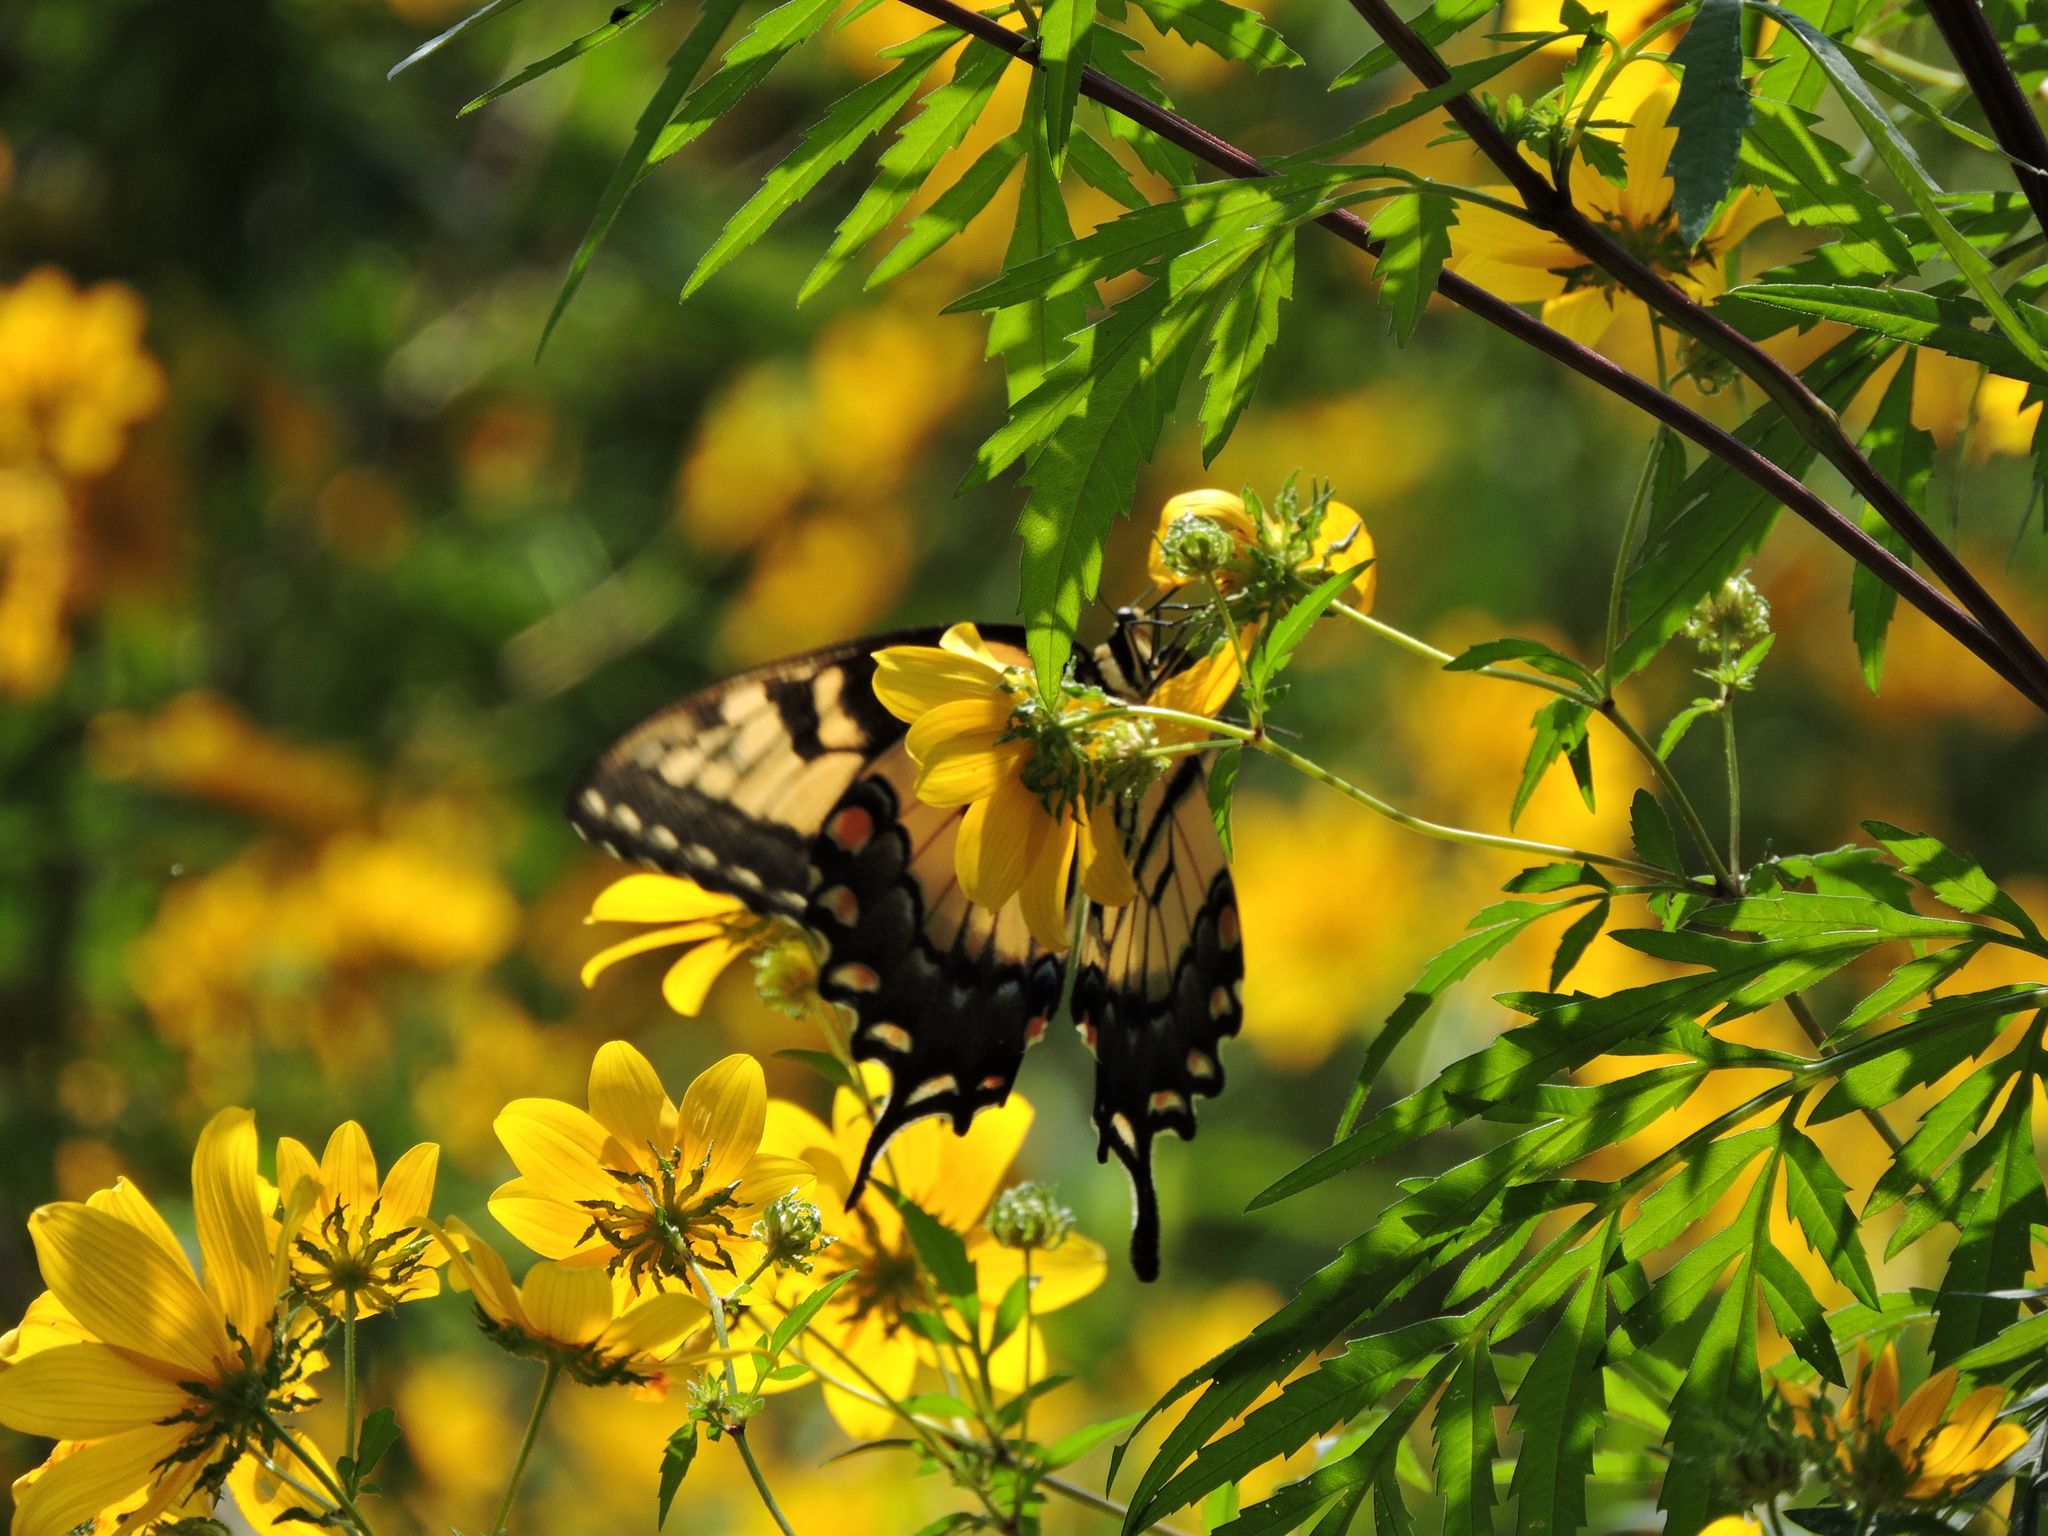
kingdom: Animalia
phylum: Arthropoda
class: Insecta
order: Lepidoptera
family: Papilionidae
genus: Papilio
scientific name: Papilio glaucus
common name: Tiger swallowtail
